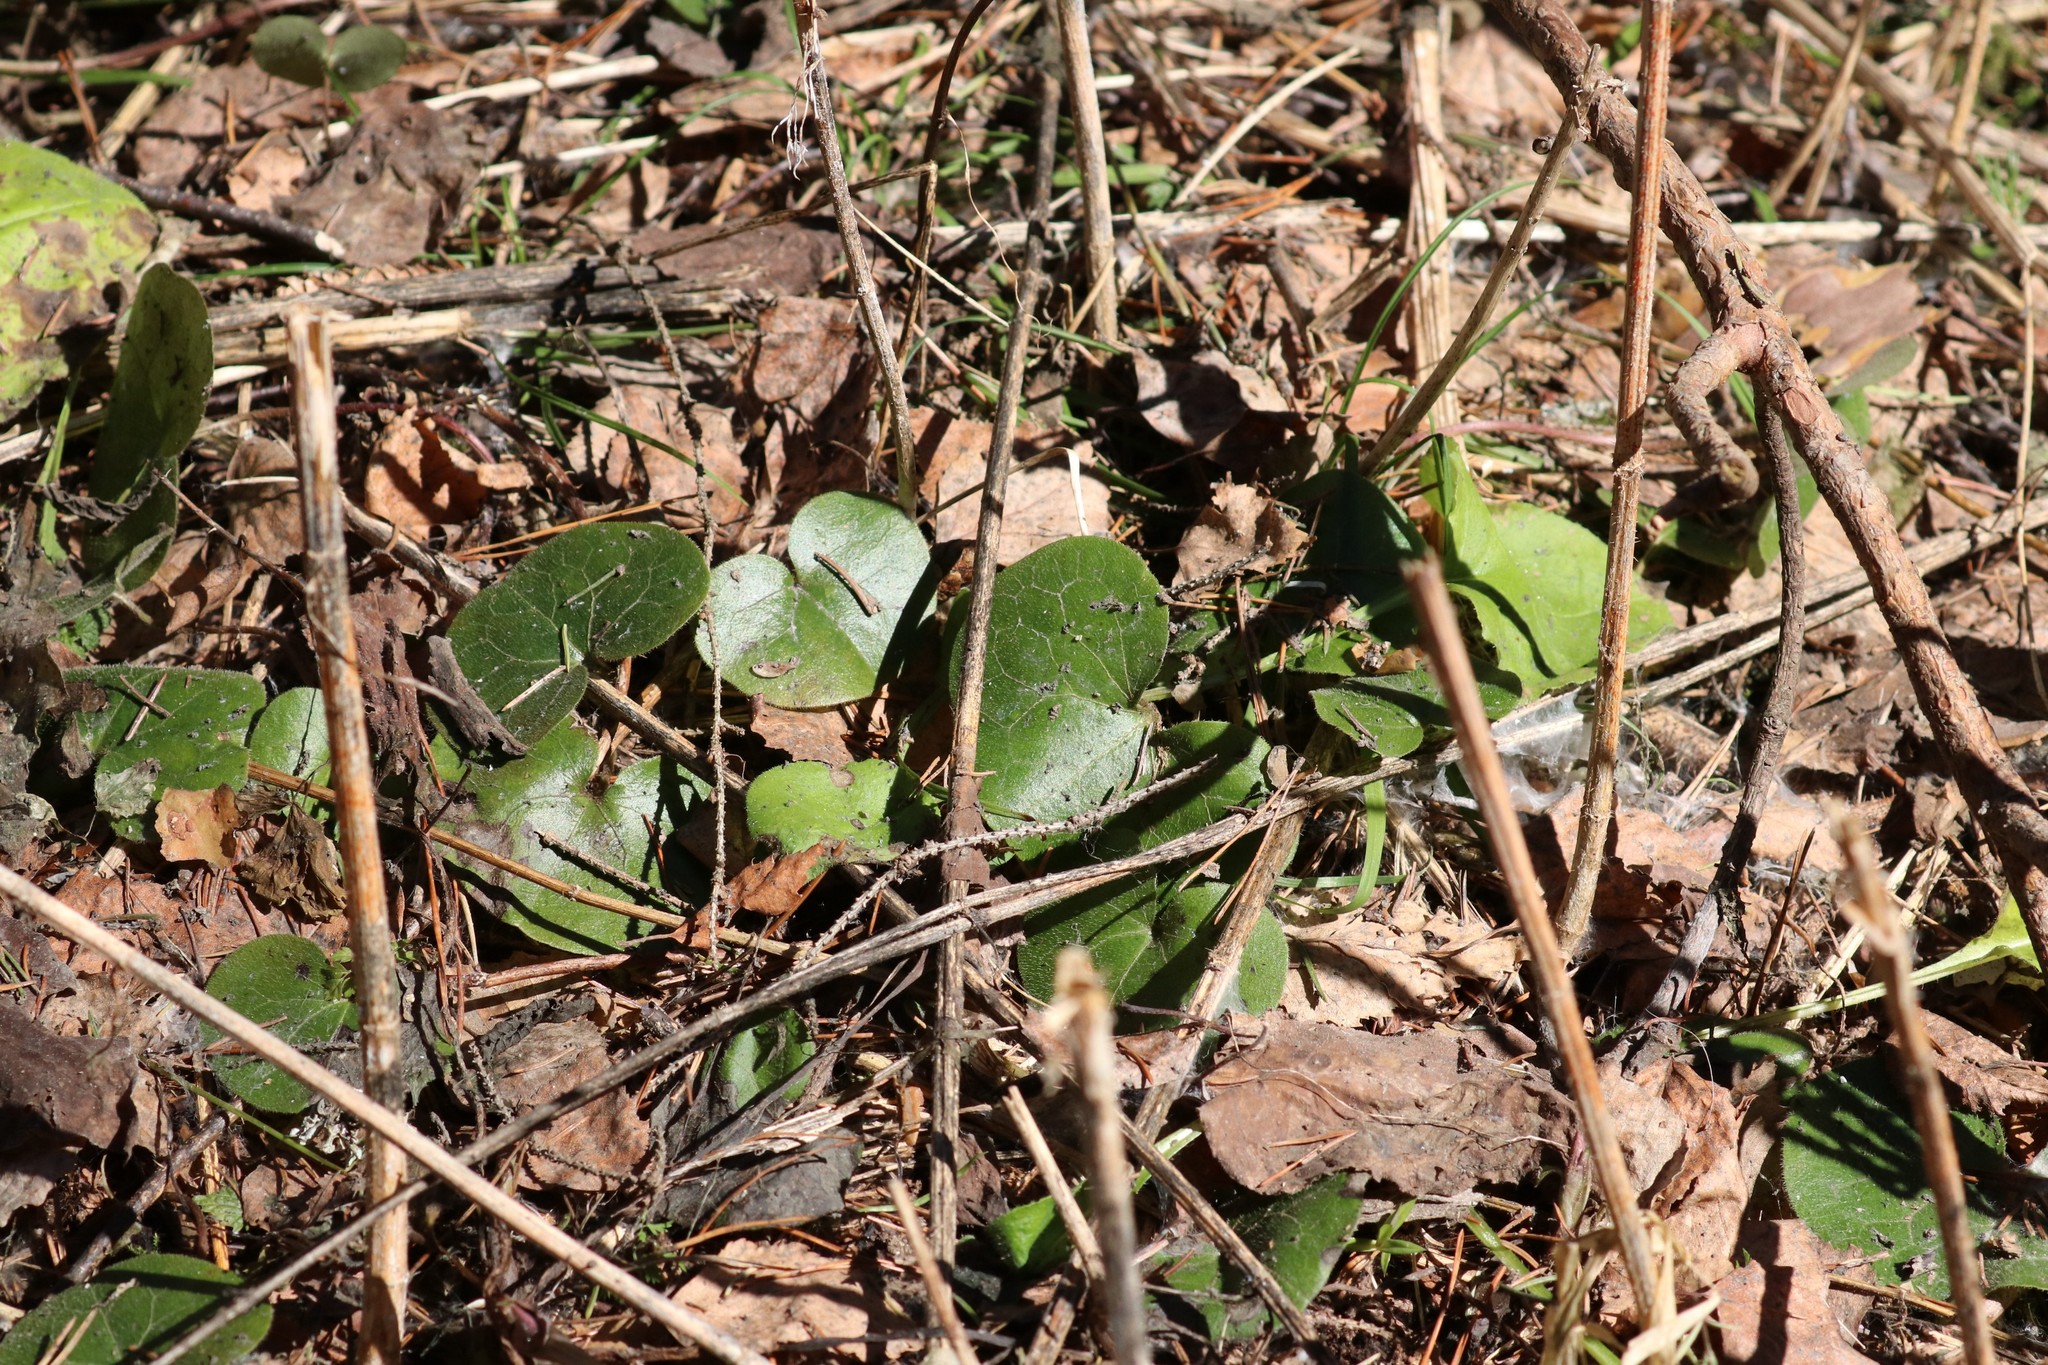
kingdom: Plantae
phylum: Tracheophyta
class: Magnoliopsida
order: Piperales
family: Aristolochiaceae
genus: Asarum
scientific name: Asarum europaeum
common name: Asarabacca
